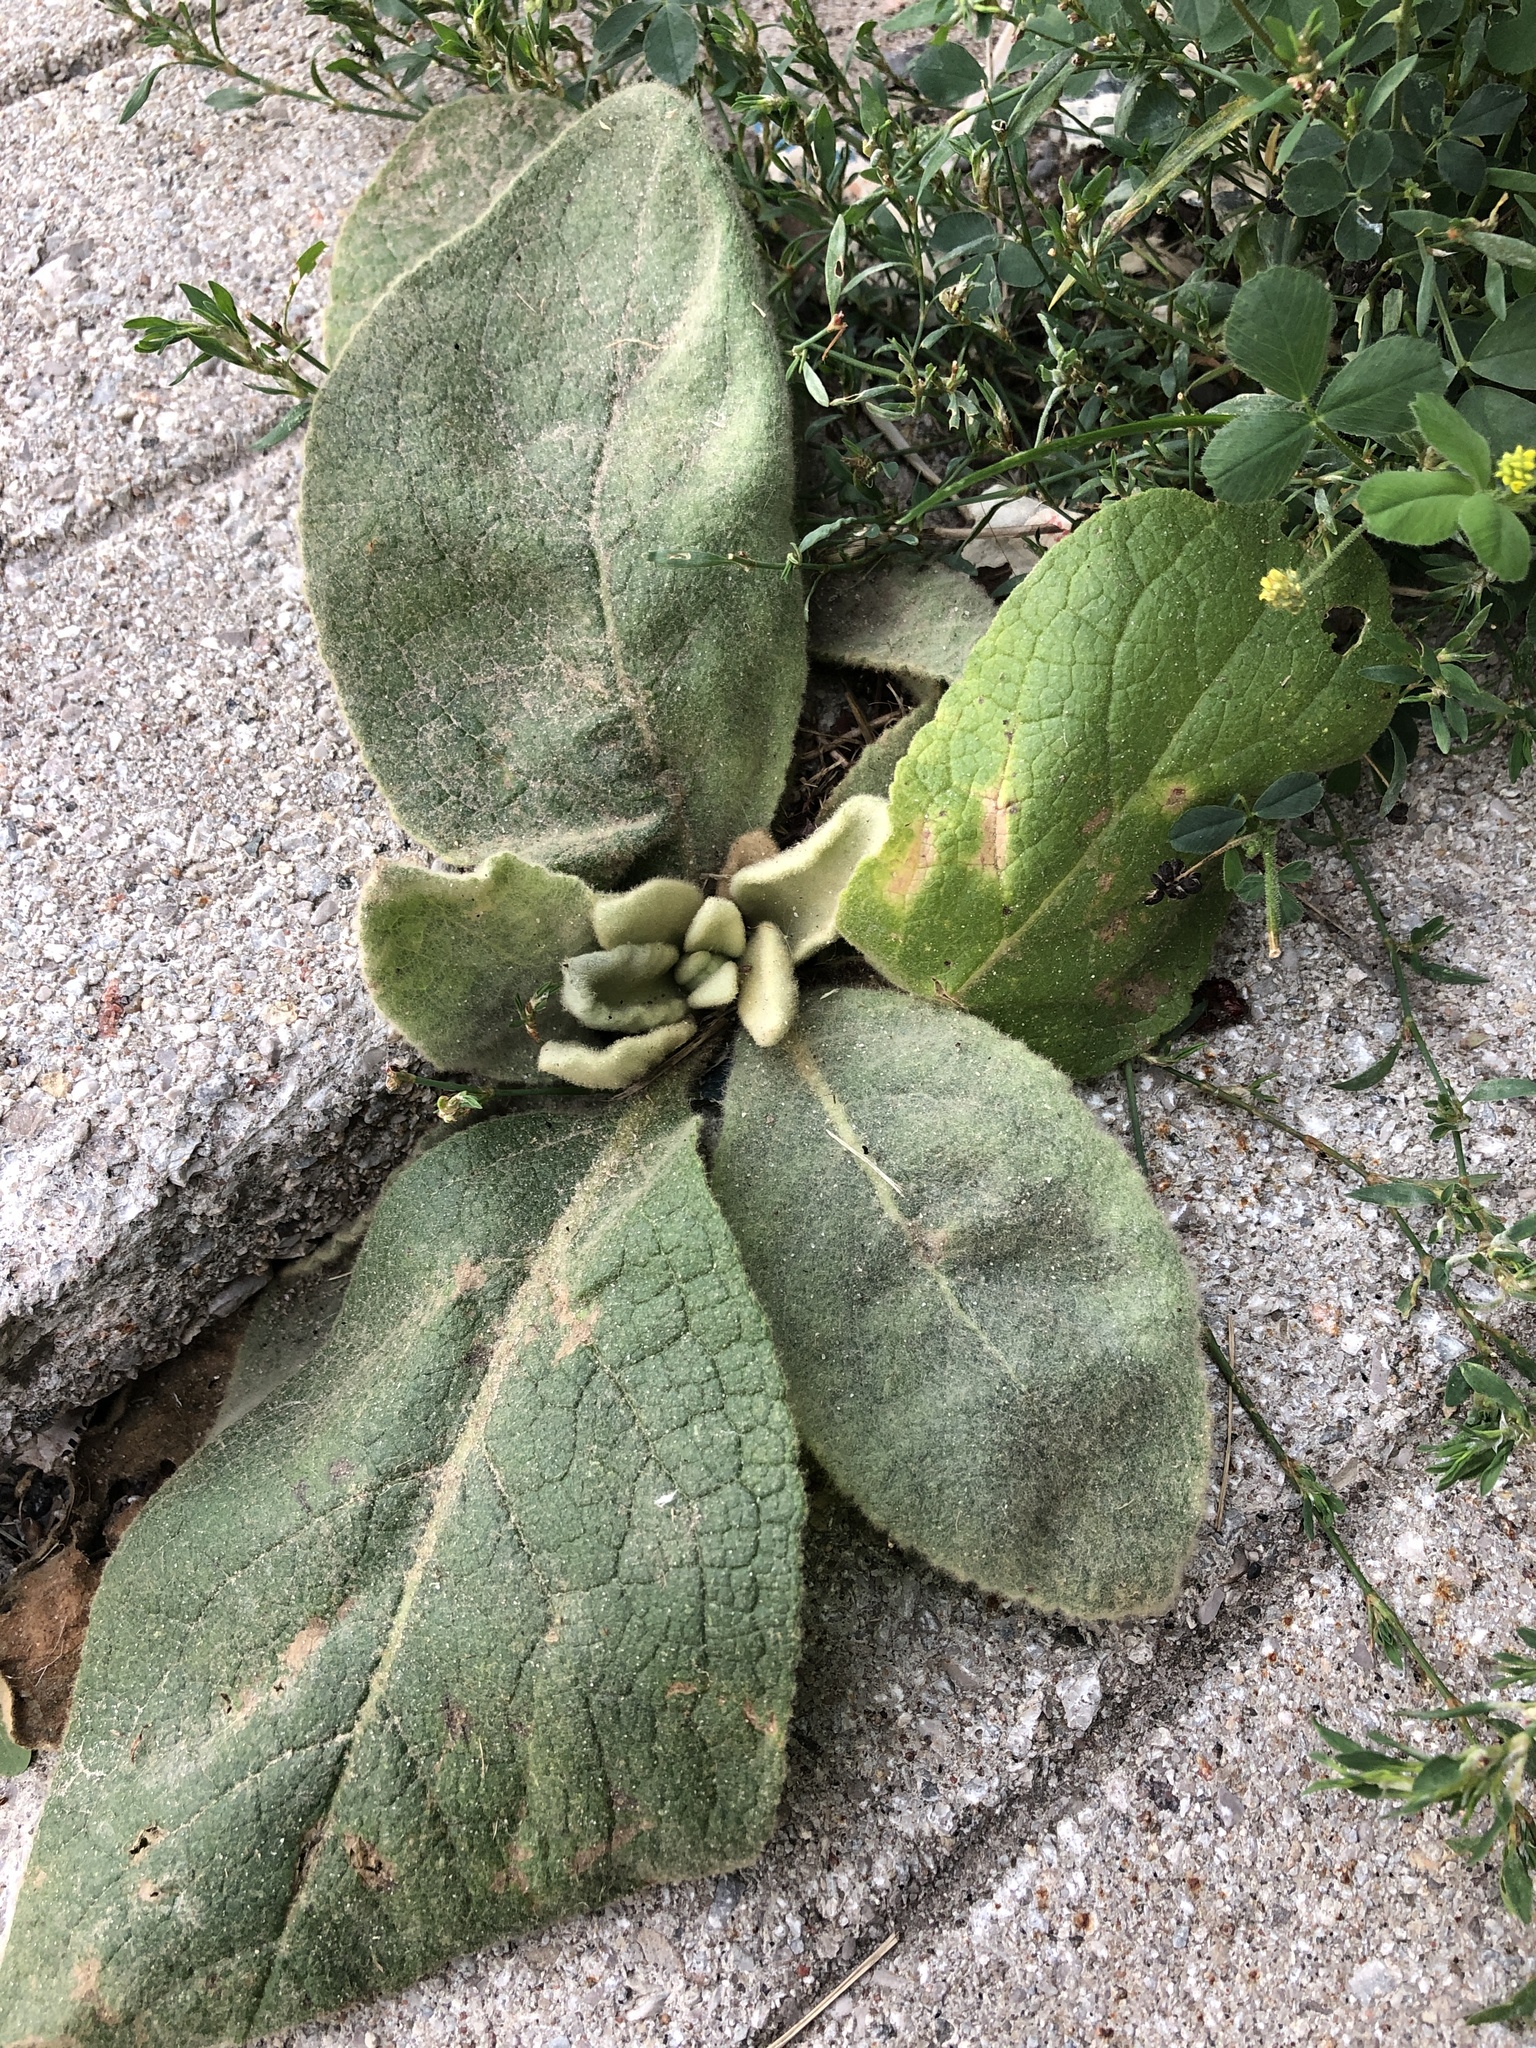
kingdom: Plantae
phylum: Tracheophyta
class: Magnoliopsida
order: Lamiales
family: Scrophulariaceae
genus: Verbascum
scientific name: Verbascum thapsus
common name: Common mullein
